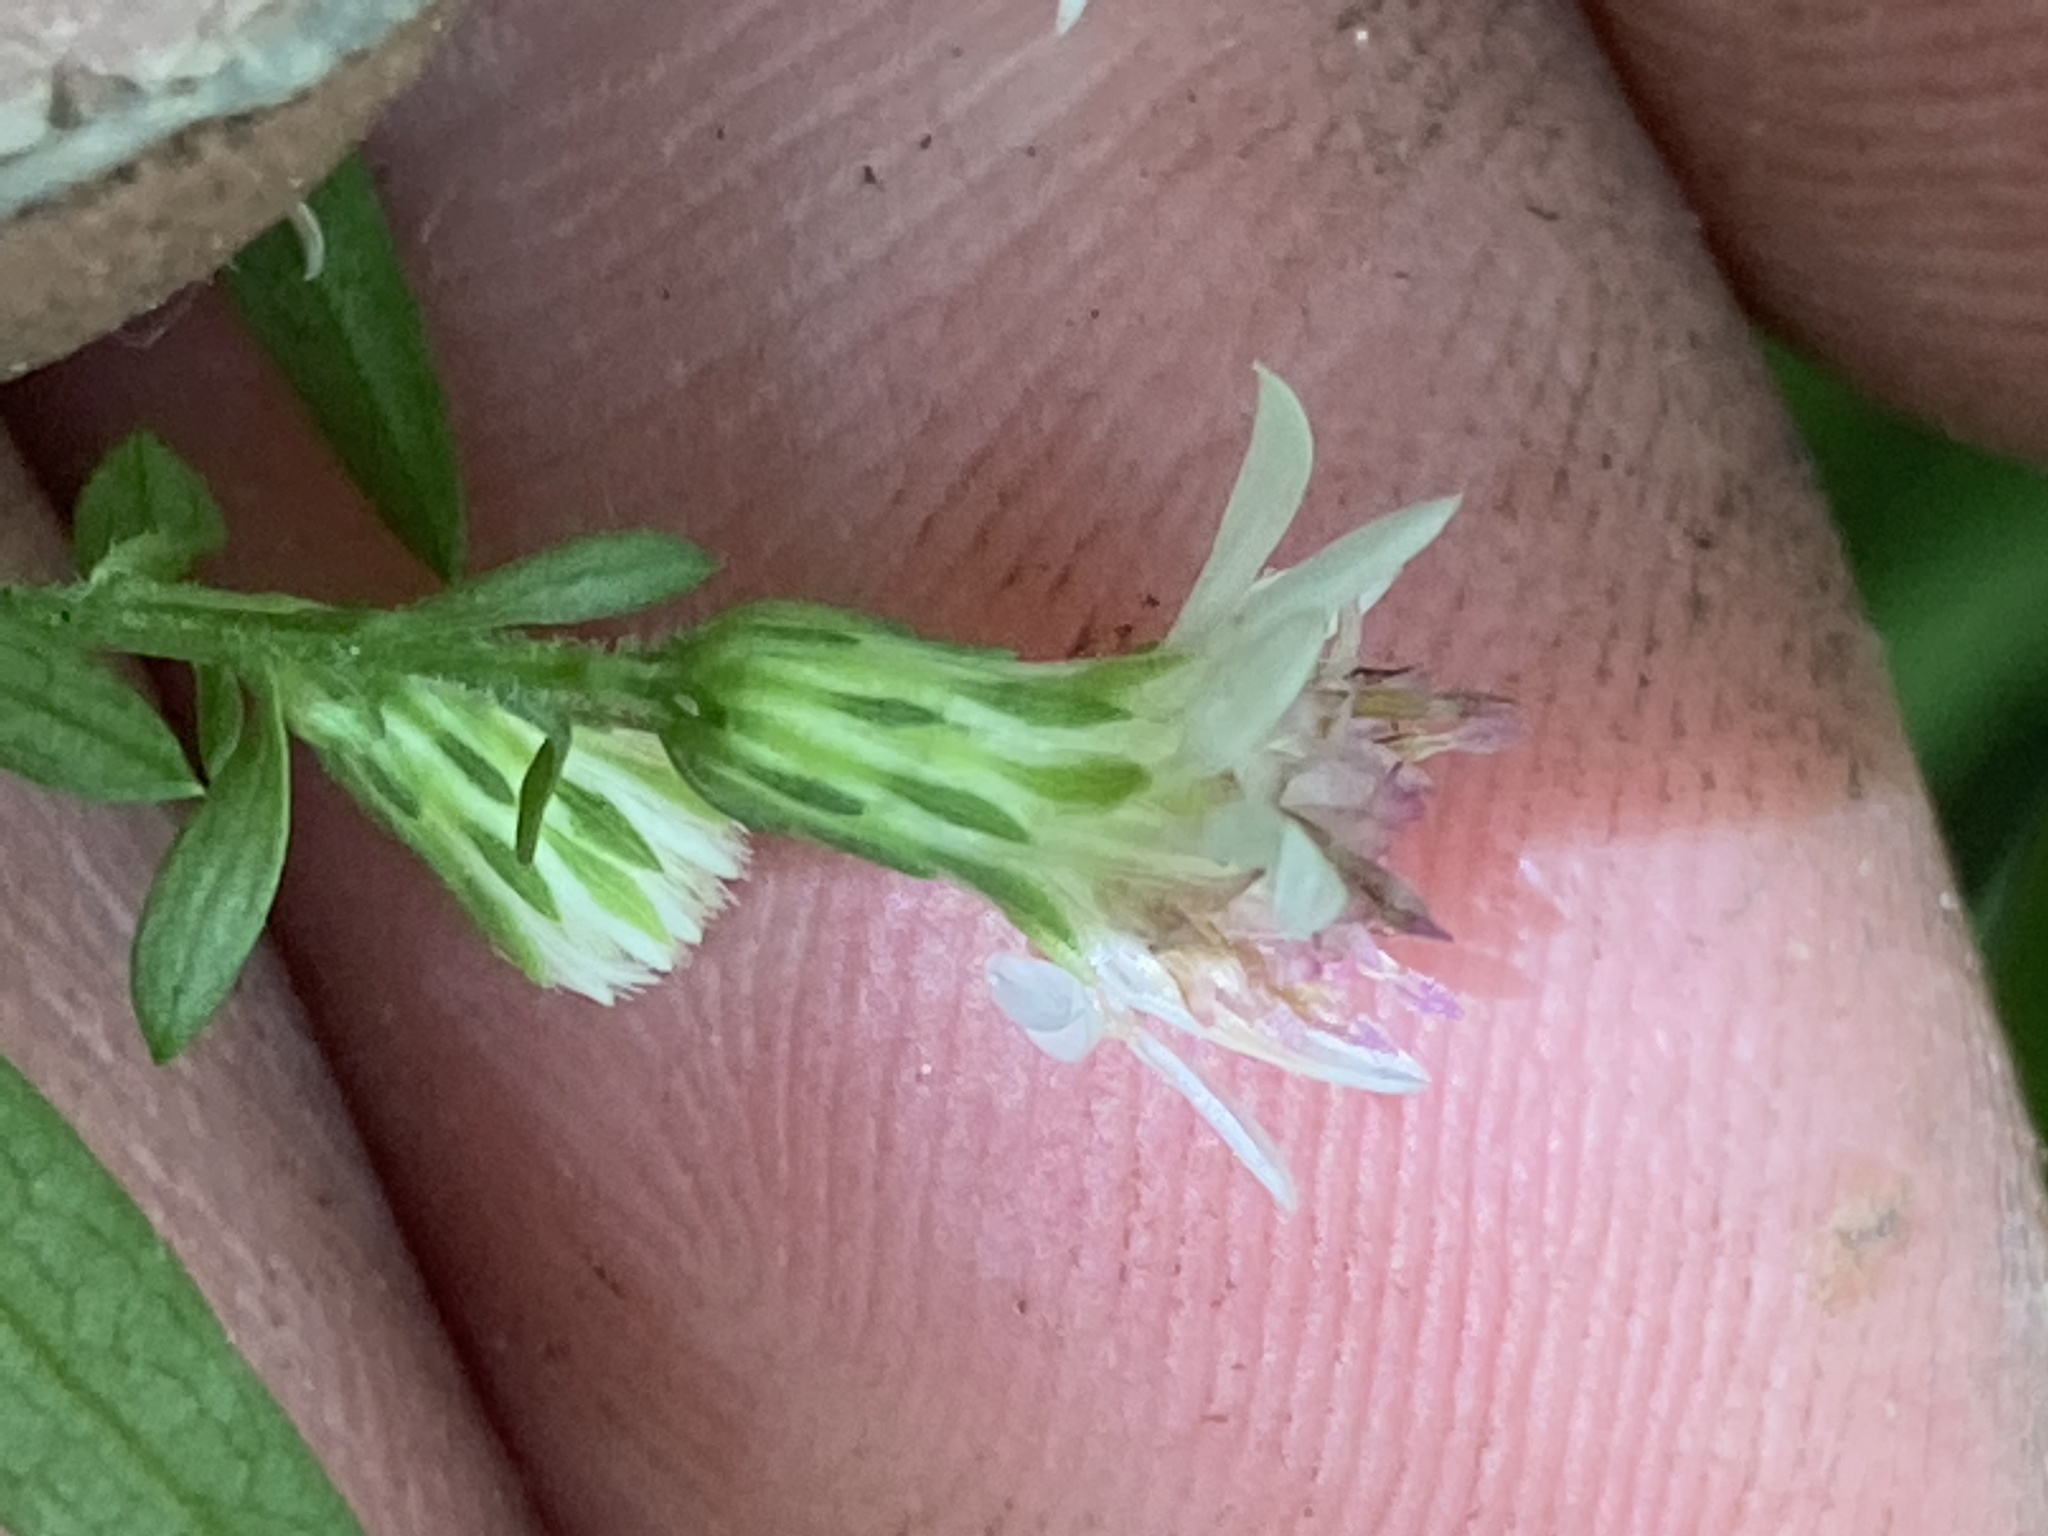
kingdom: Plantae
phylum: Tracheophyta
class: Magnoliopsida
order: Asterales
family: Asteraceae
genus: Symphyotrichum
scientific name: Symphyotrichum lateriflorum
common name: Calico aster
